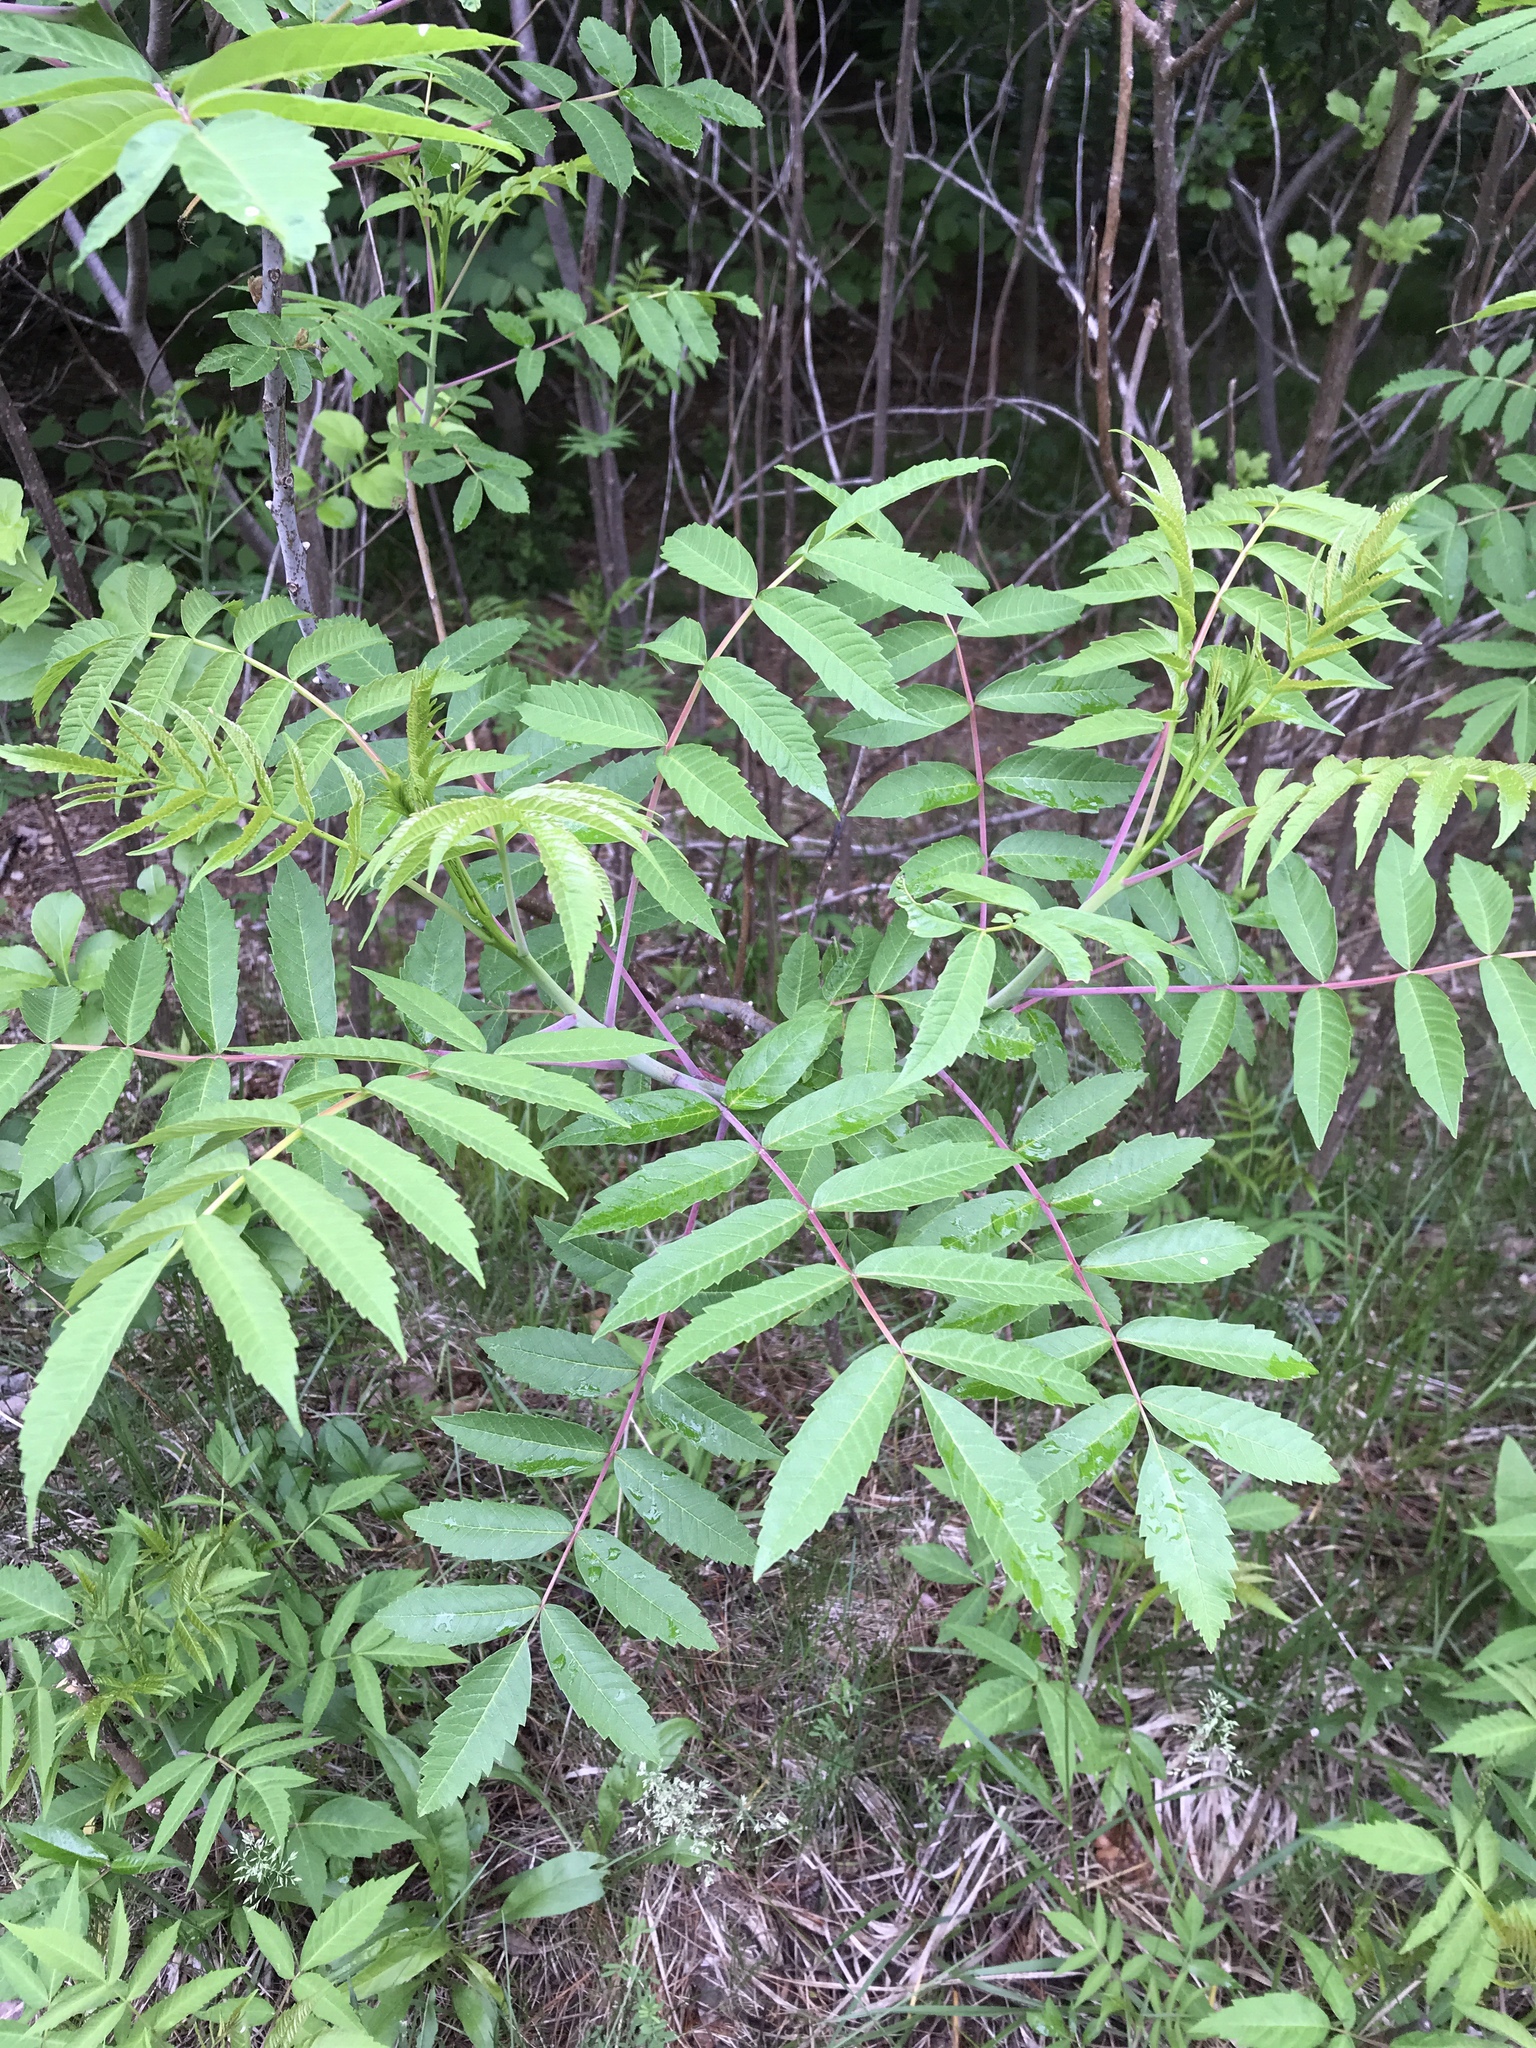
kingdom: Plantae
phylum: Tracheophyta
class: Magnoliopsida
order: Sapindales
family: Anacardiaceae
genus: Rhus
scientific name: Rhus typhina
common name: Staghorn sumac
